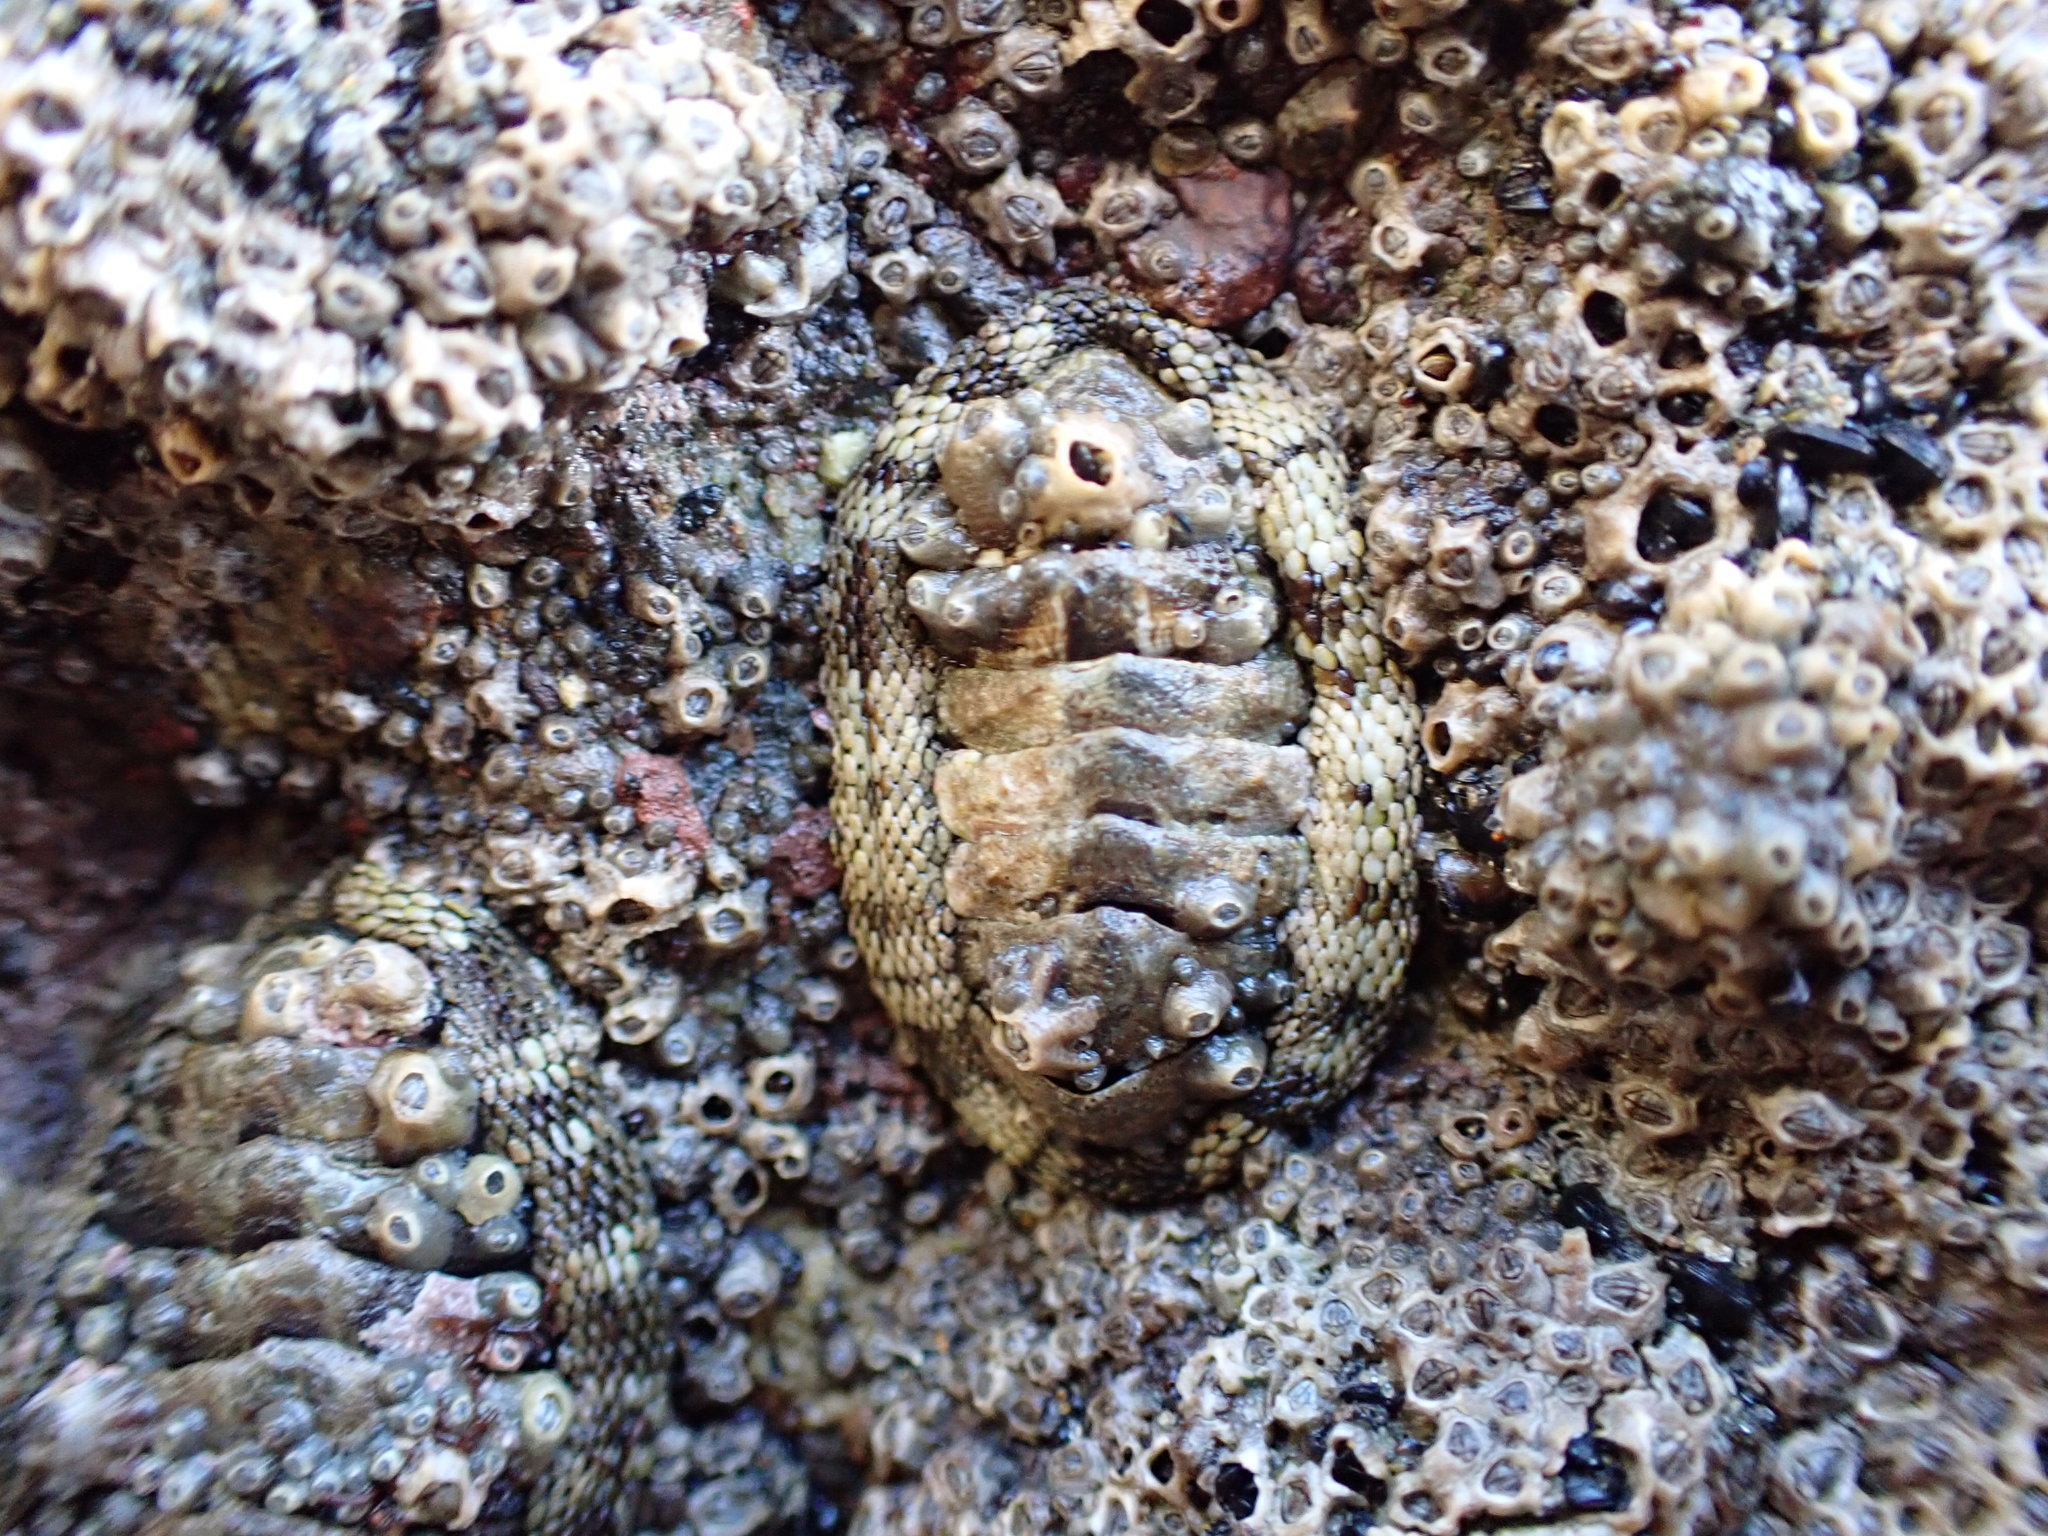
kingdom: Animalia
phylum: Mollusca
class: Polyplacophora
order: Chitonida
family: Chitonidae
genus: Sypharochiton
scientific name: Sypharochiton pelliserpentis
